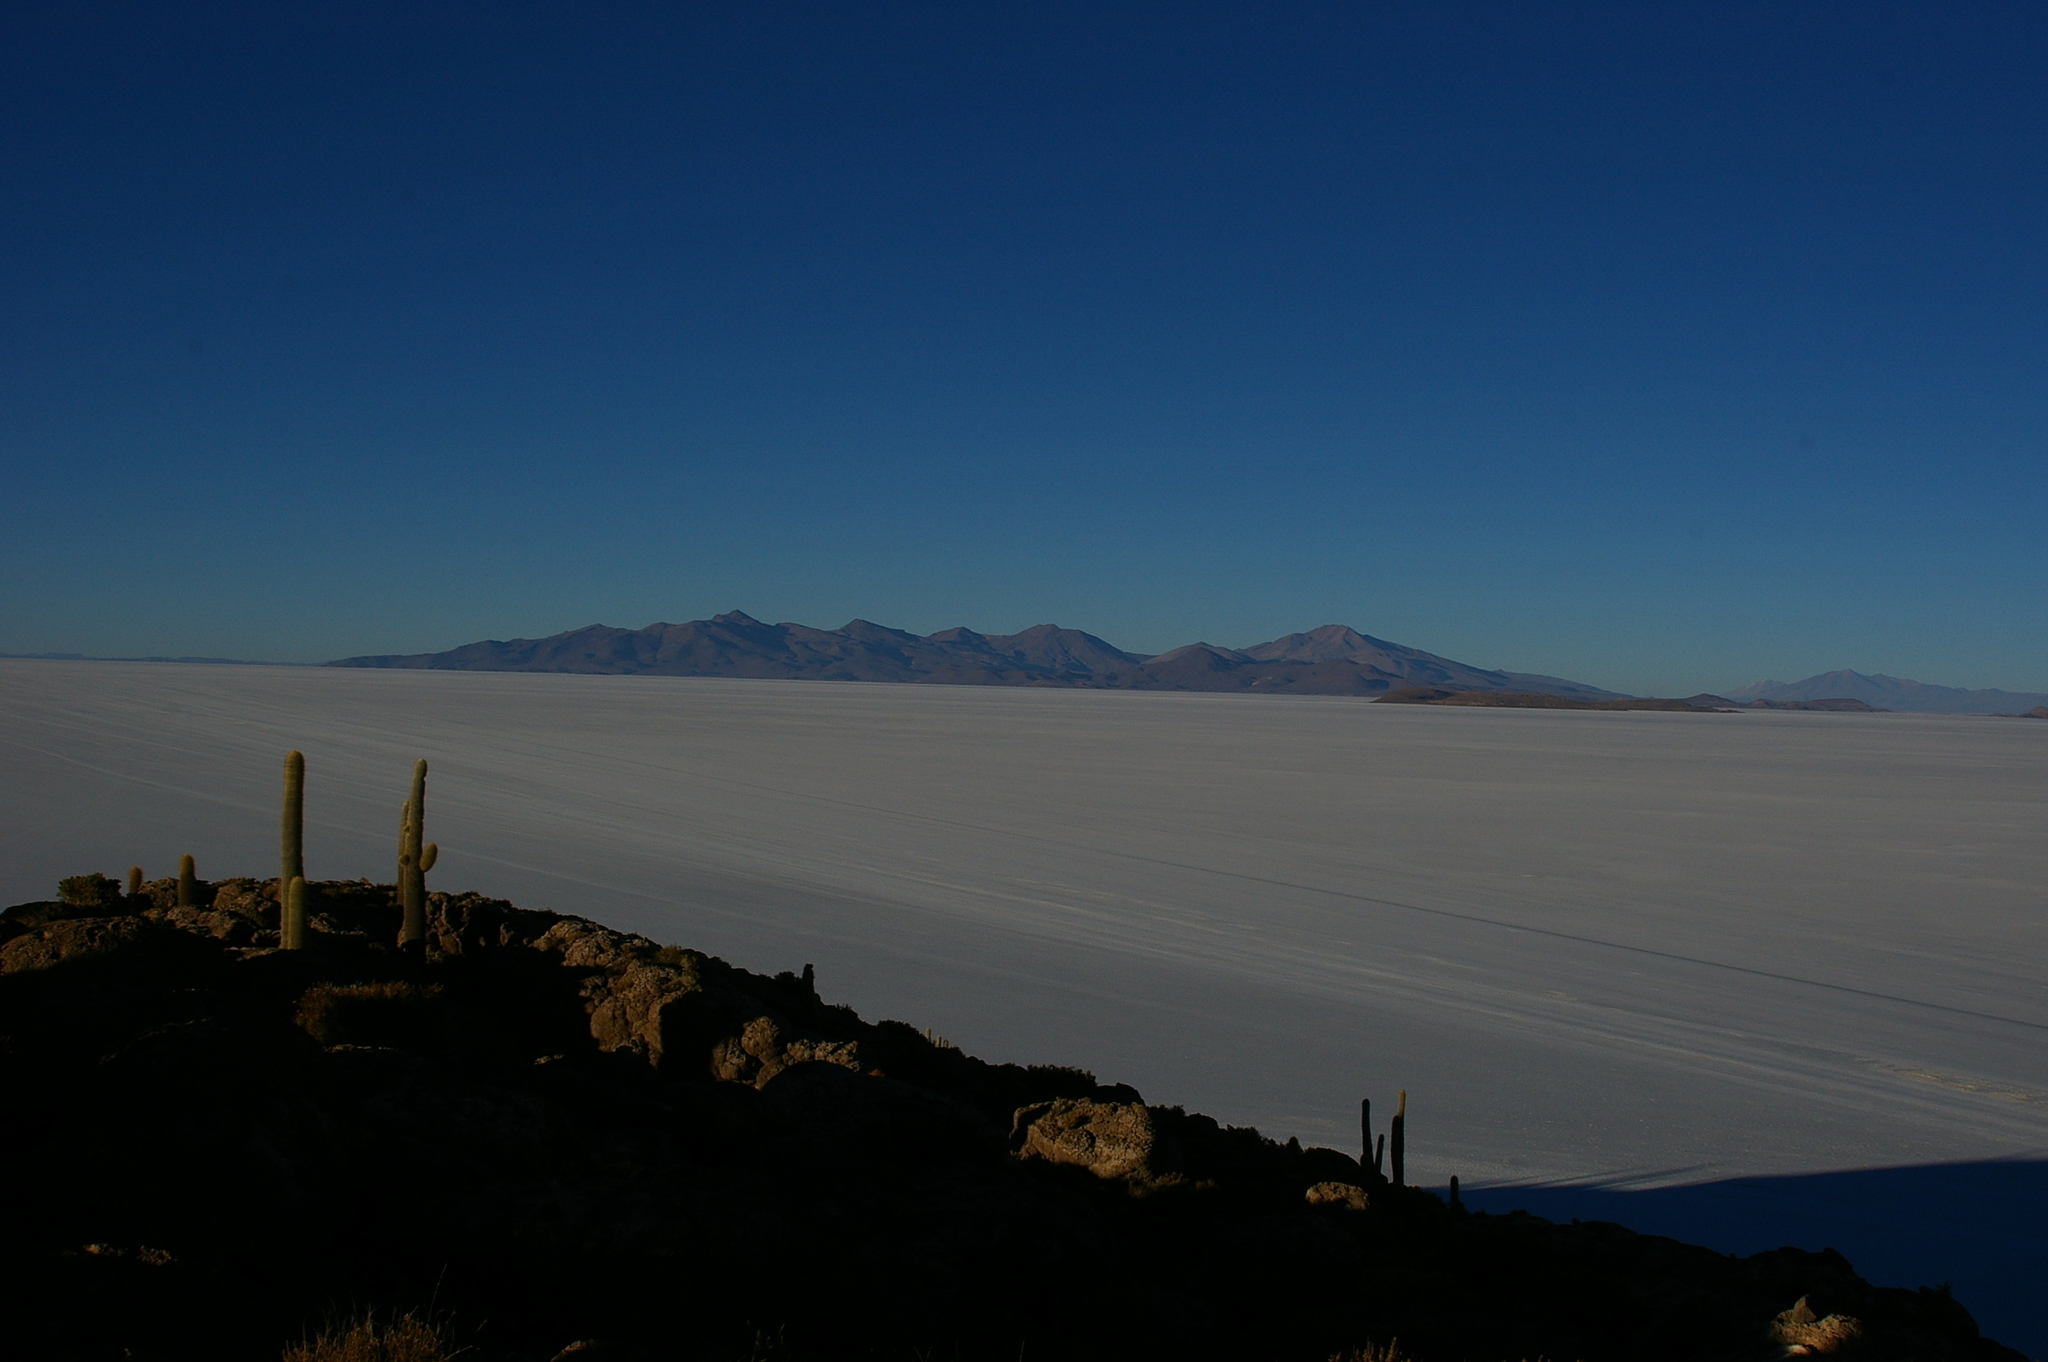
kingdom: Plantae
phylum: Tracheophyta
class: Magnoliopsida
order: Caryophyllales
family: Cactaceae
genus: Leucostele
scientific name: Leucostele atacamensis
